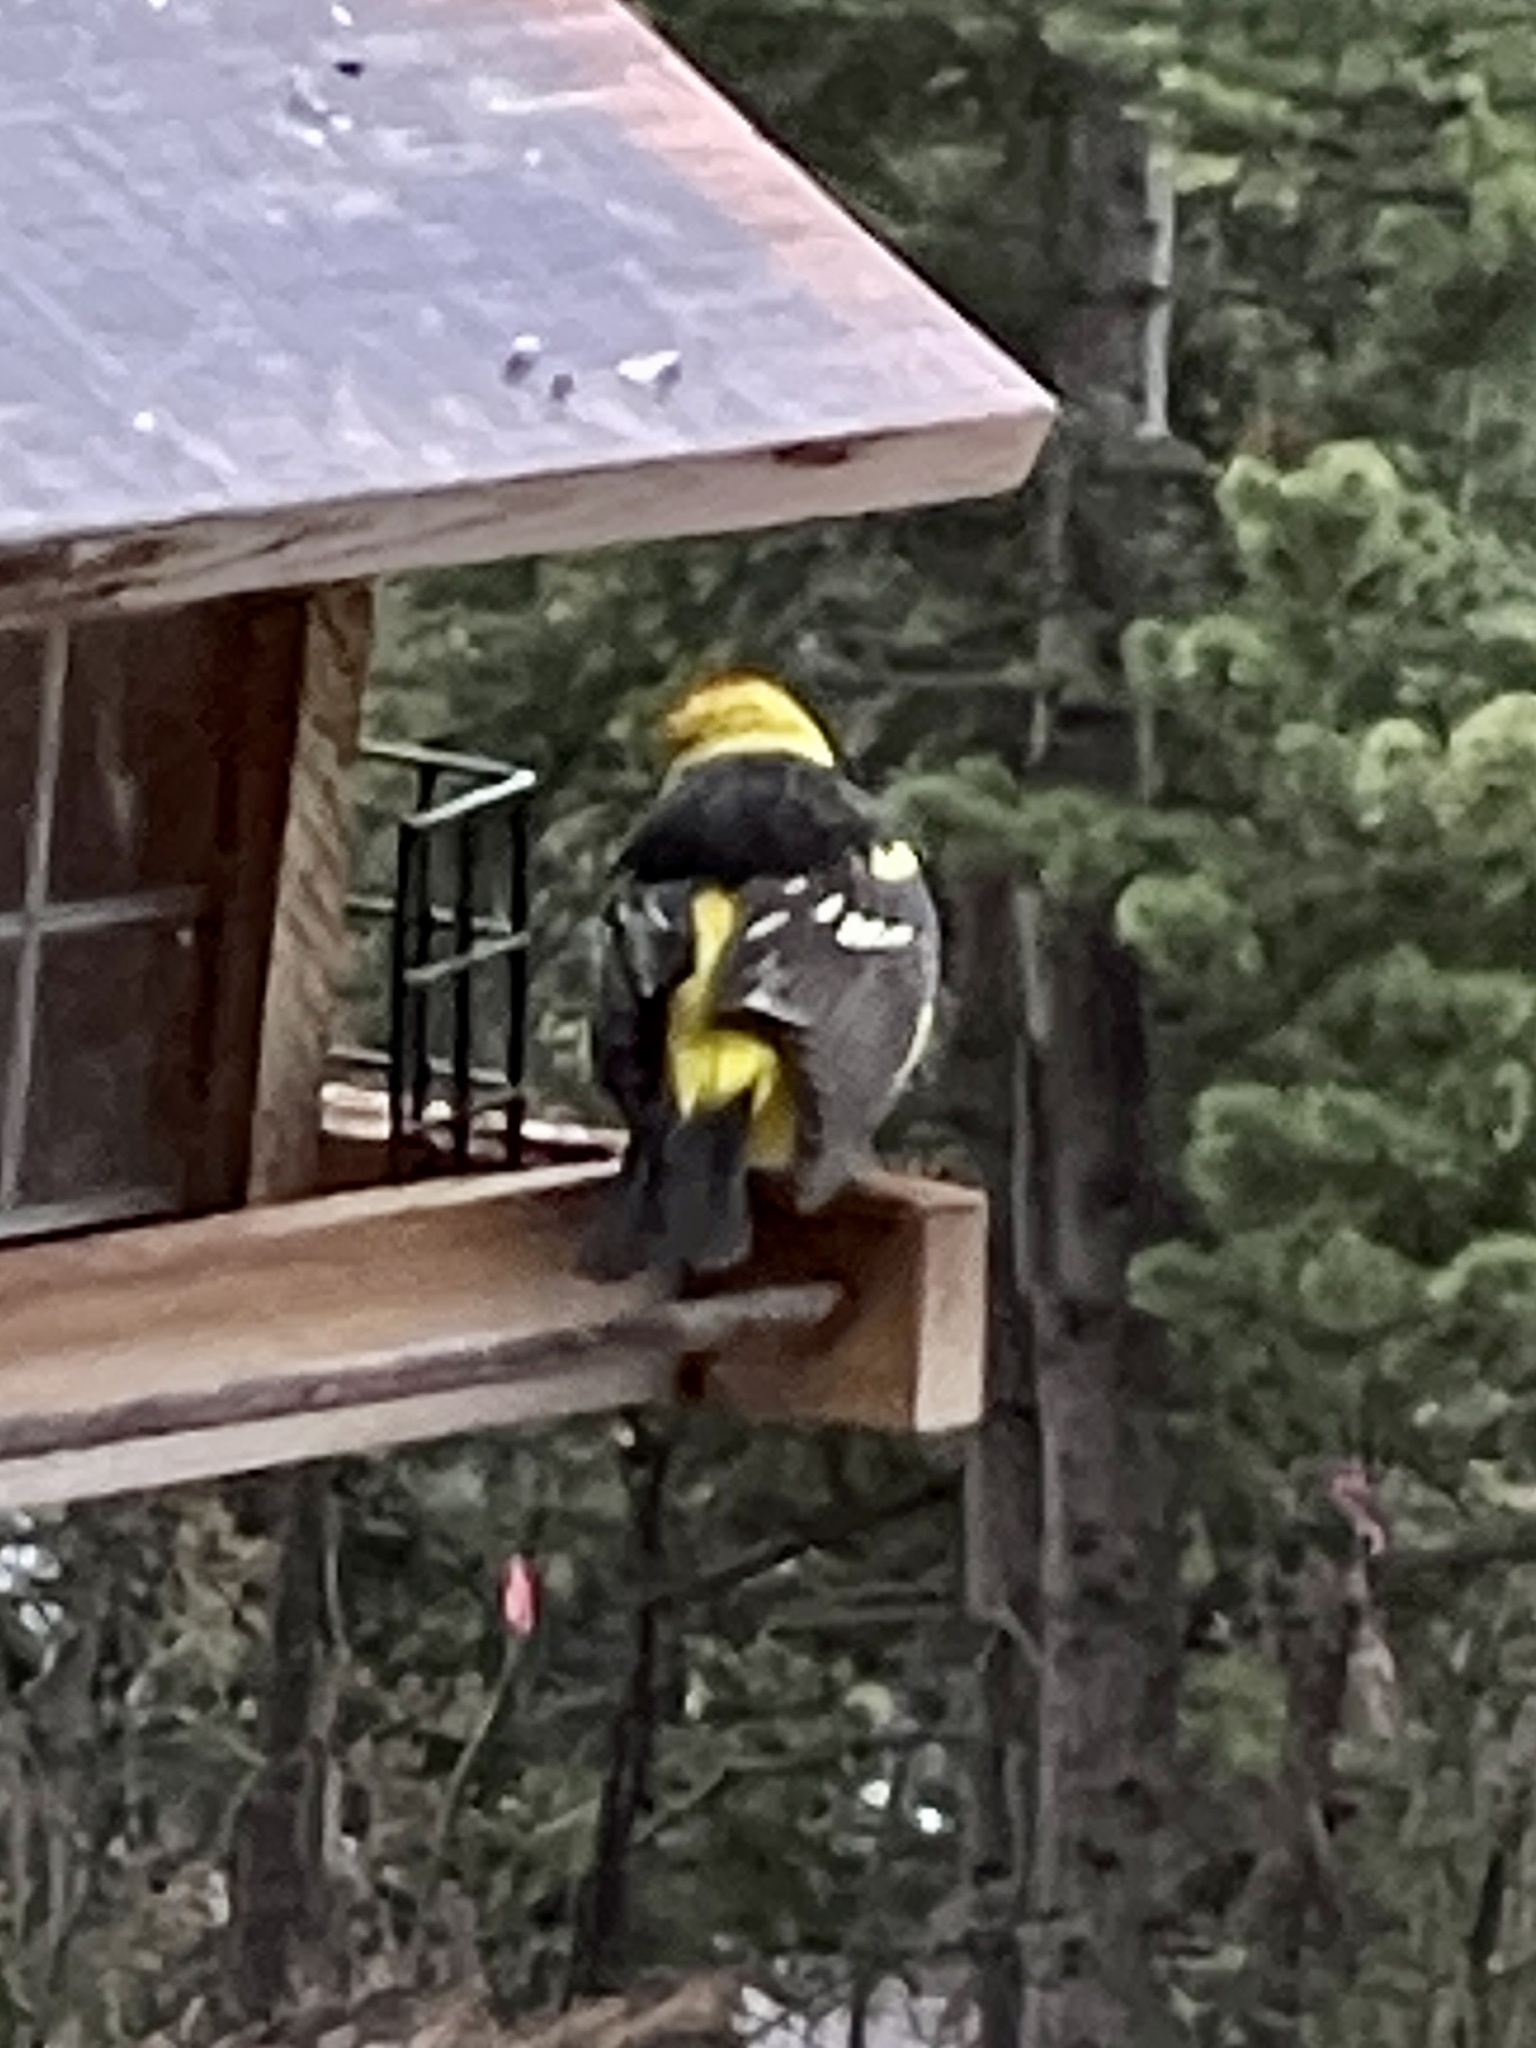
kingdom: Animalia
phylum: Chordata
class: Aves
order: Passeriformes
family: Cardinalidae
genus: Piranga
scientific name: Piranga ludoviciana
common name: Western tanager
